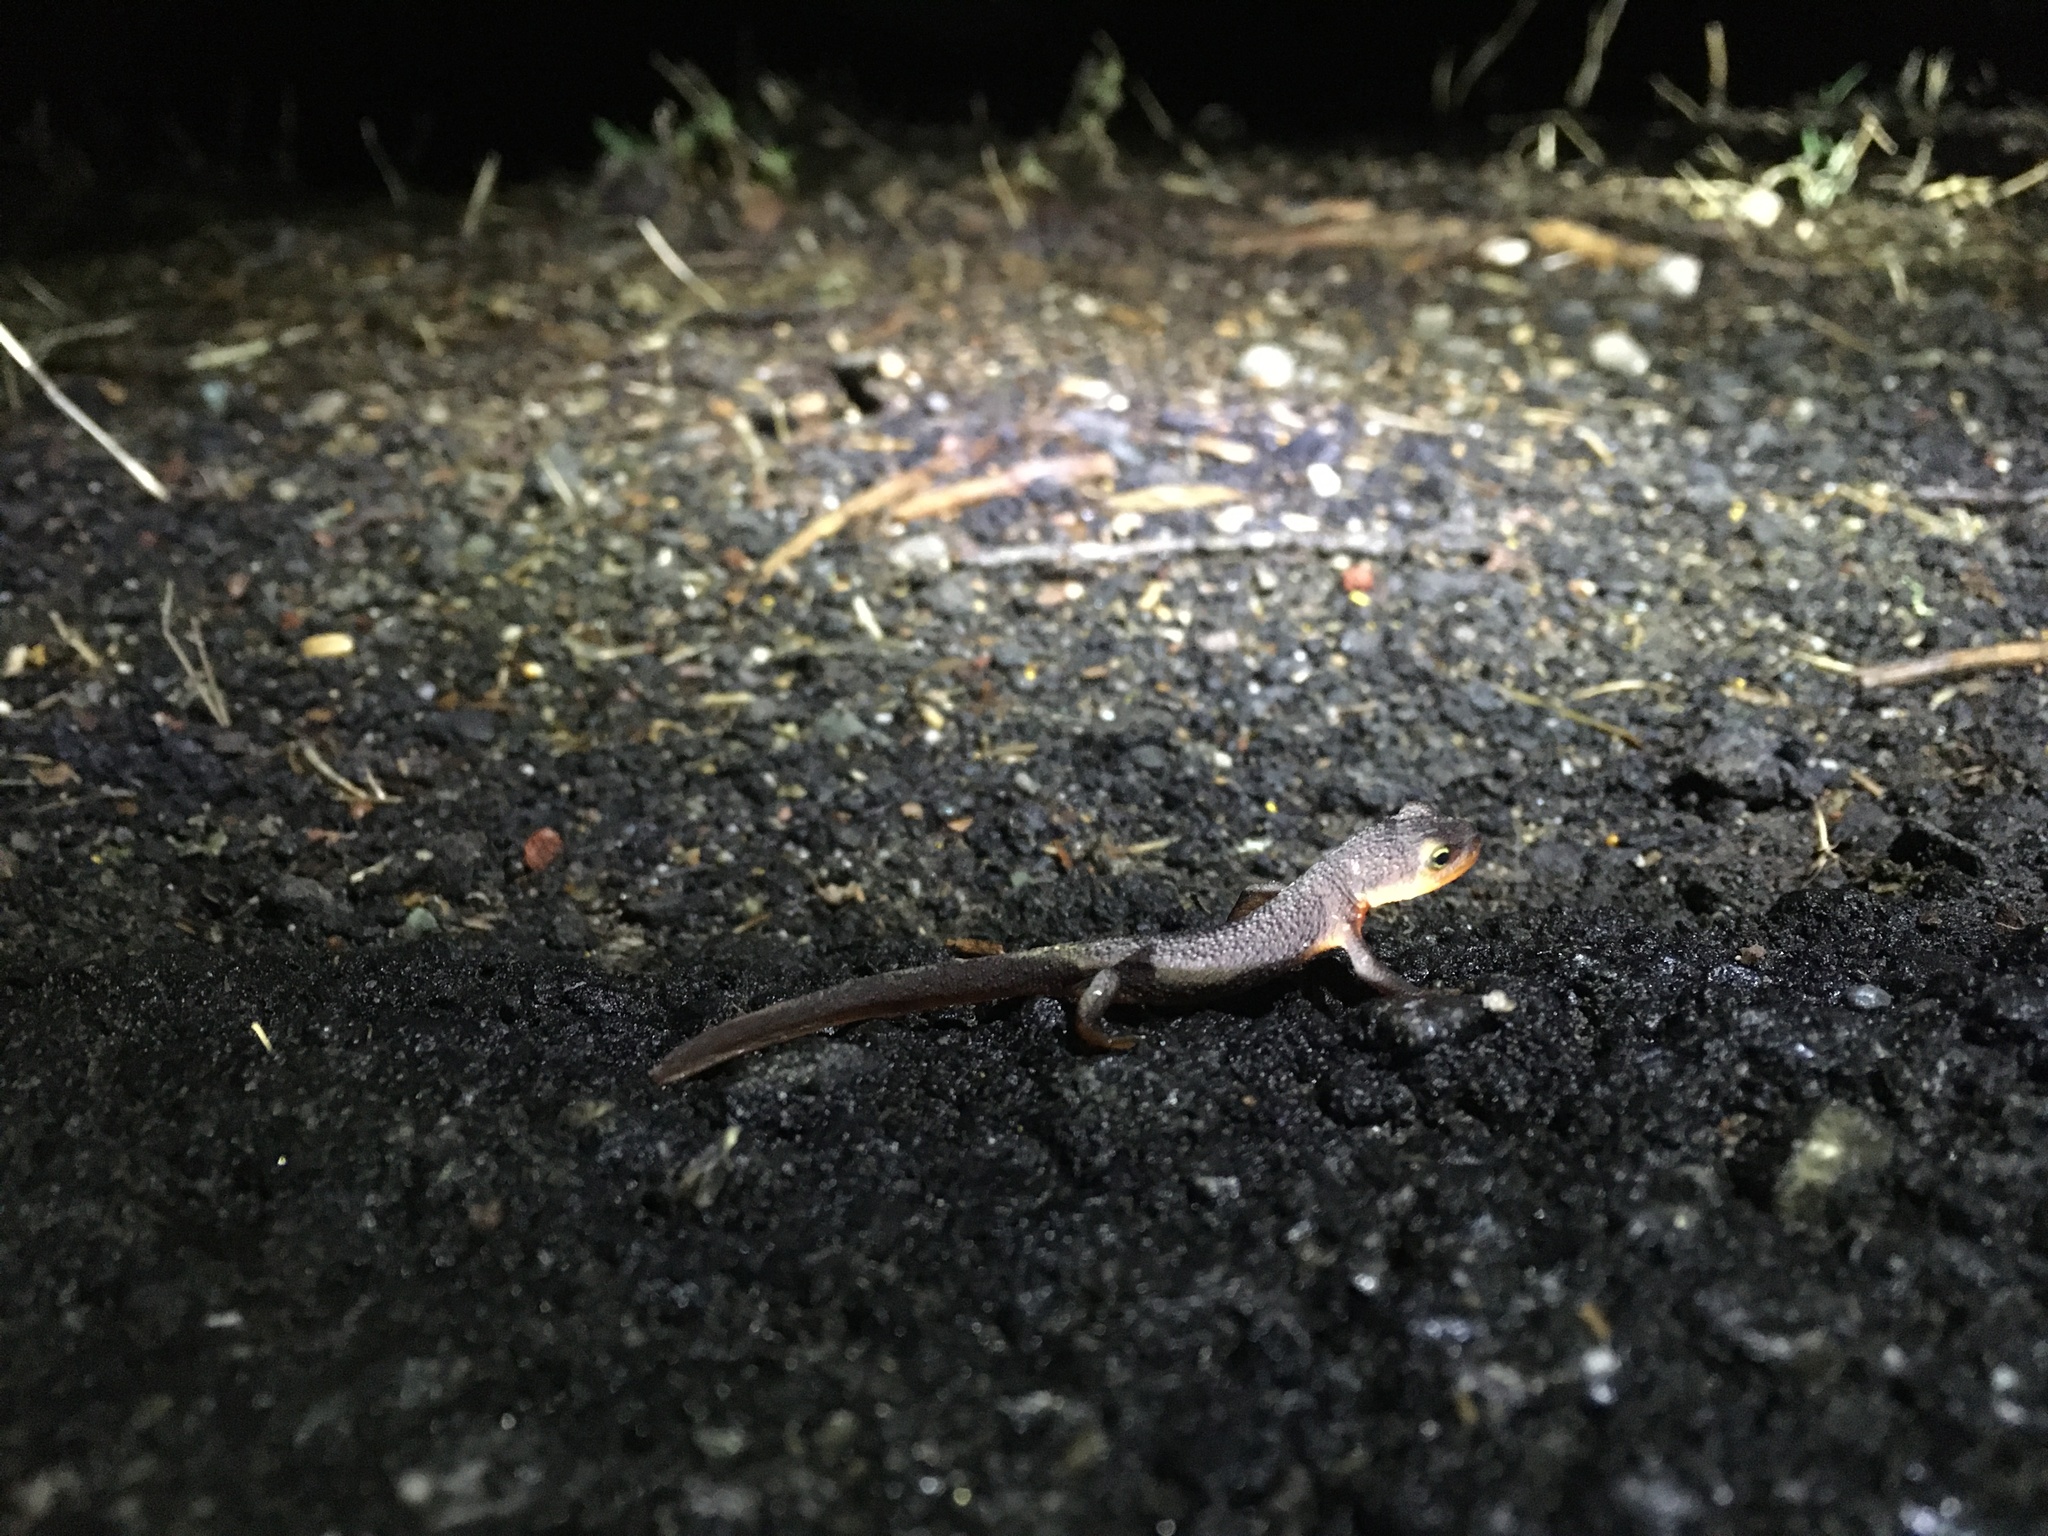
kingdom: Animalia
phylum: Chordata
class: Amphibia
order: Caudata
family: Salamandridae
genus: Taricha
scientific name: Taricha torosa
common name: California newt
